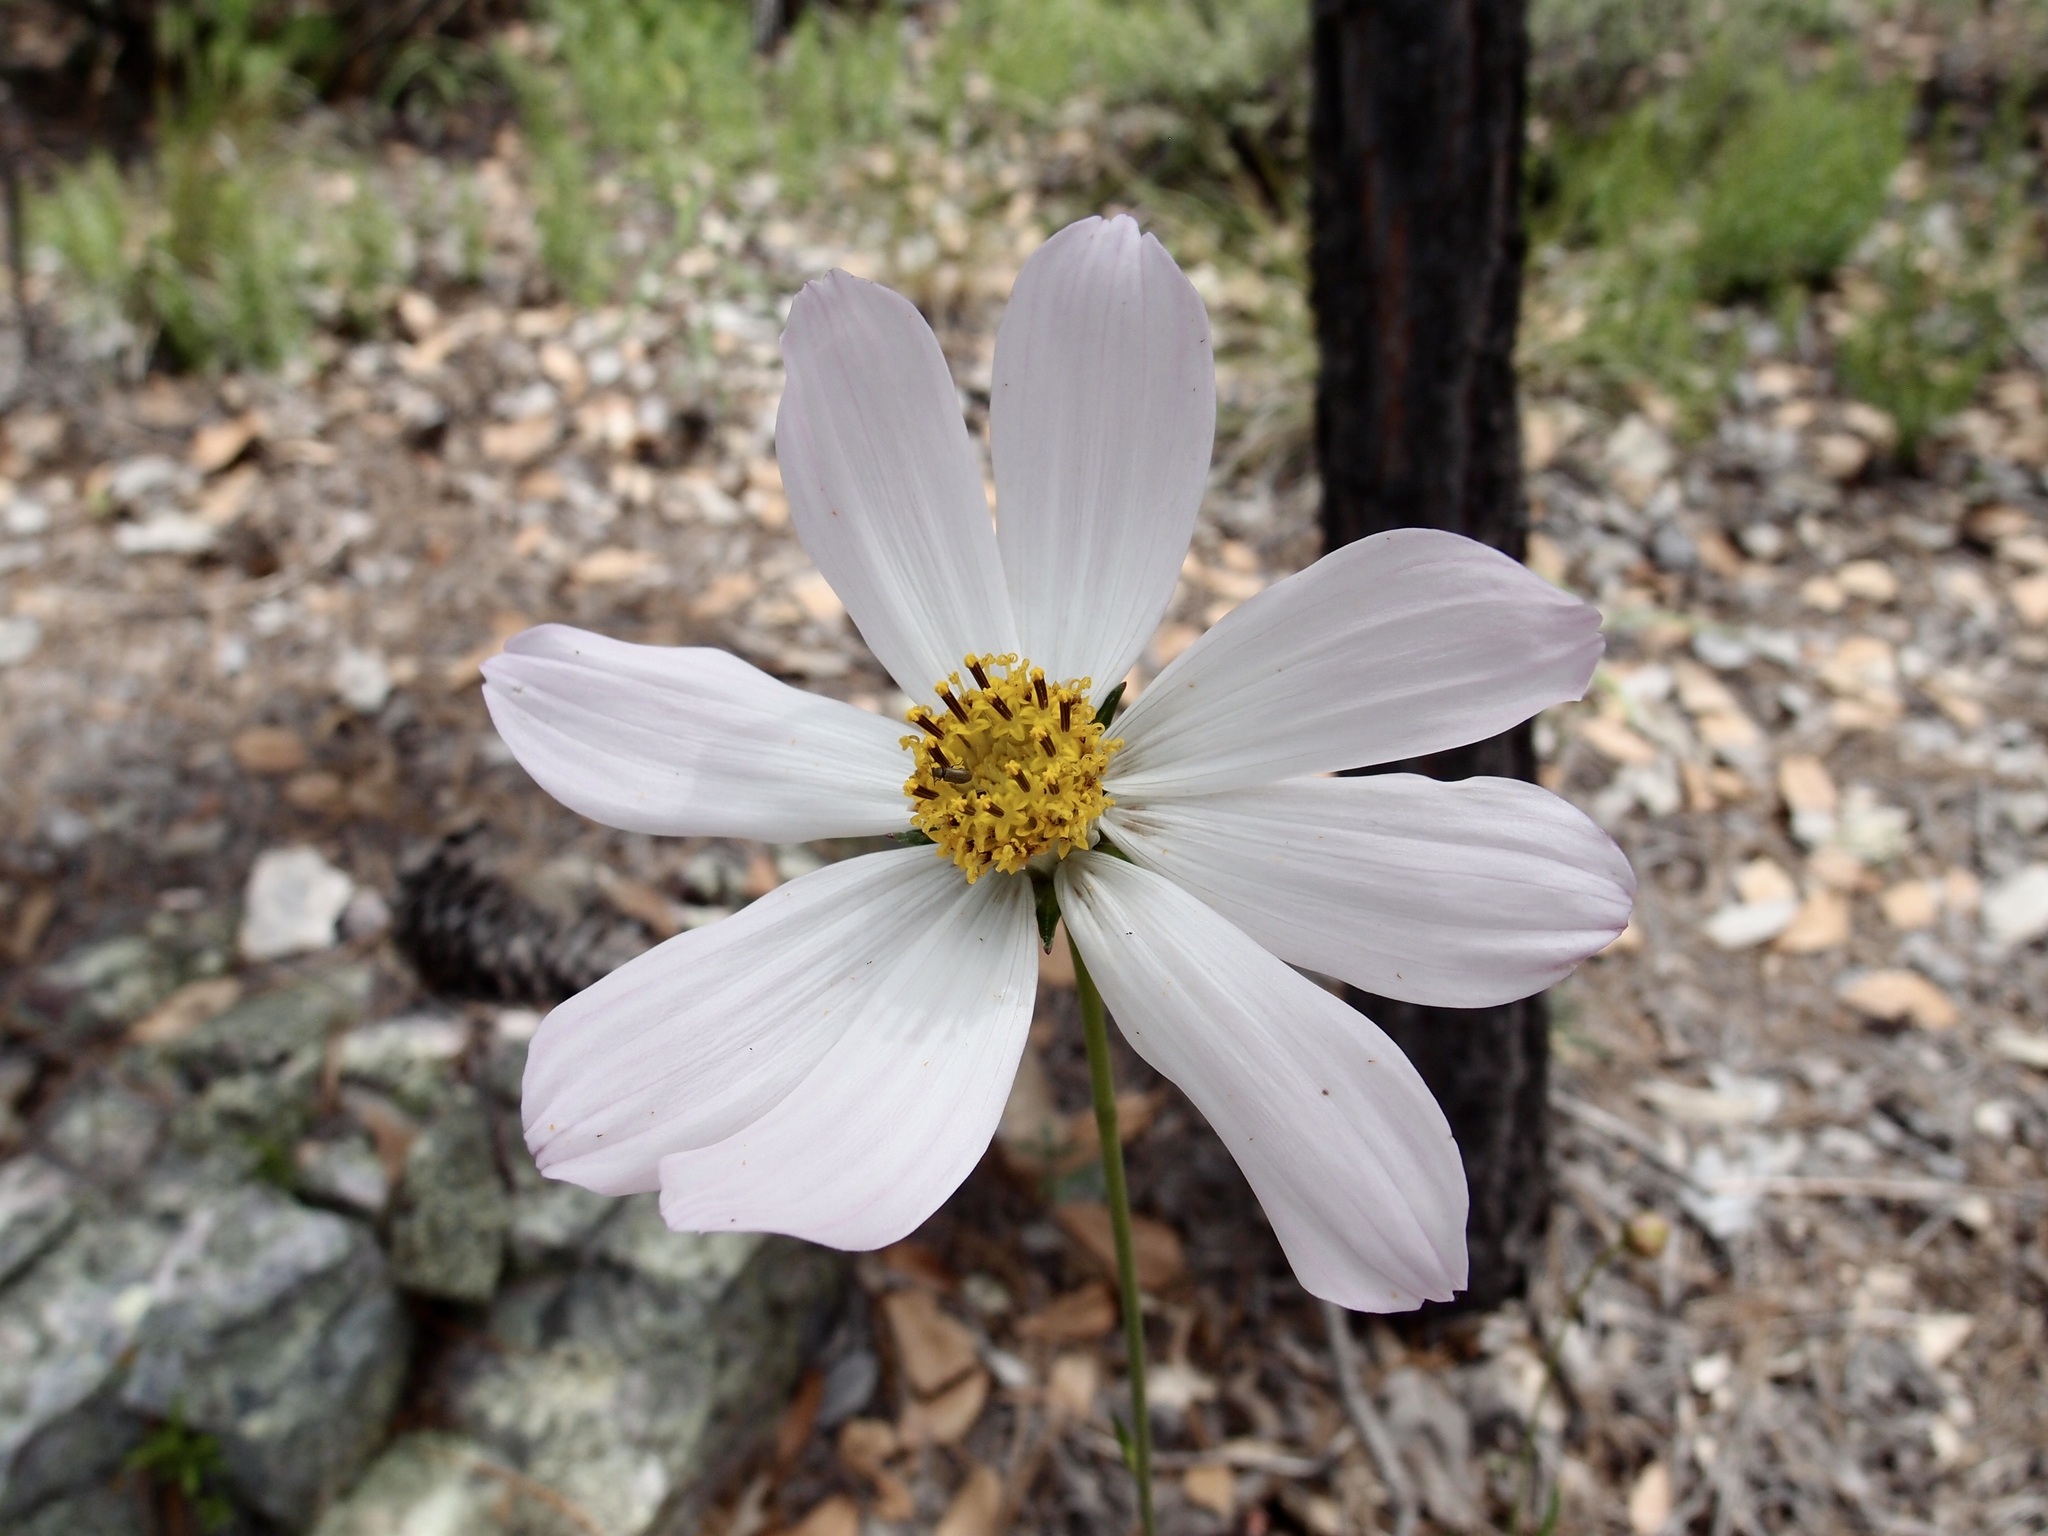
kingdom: Plantae
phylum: Tracheophyta
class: Magnoliopsida
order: Asterales
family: Asteraceae
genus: Cosmos
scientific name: Cosmos pringlei
